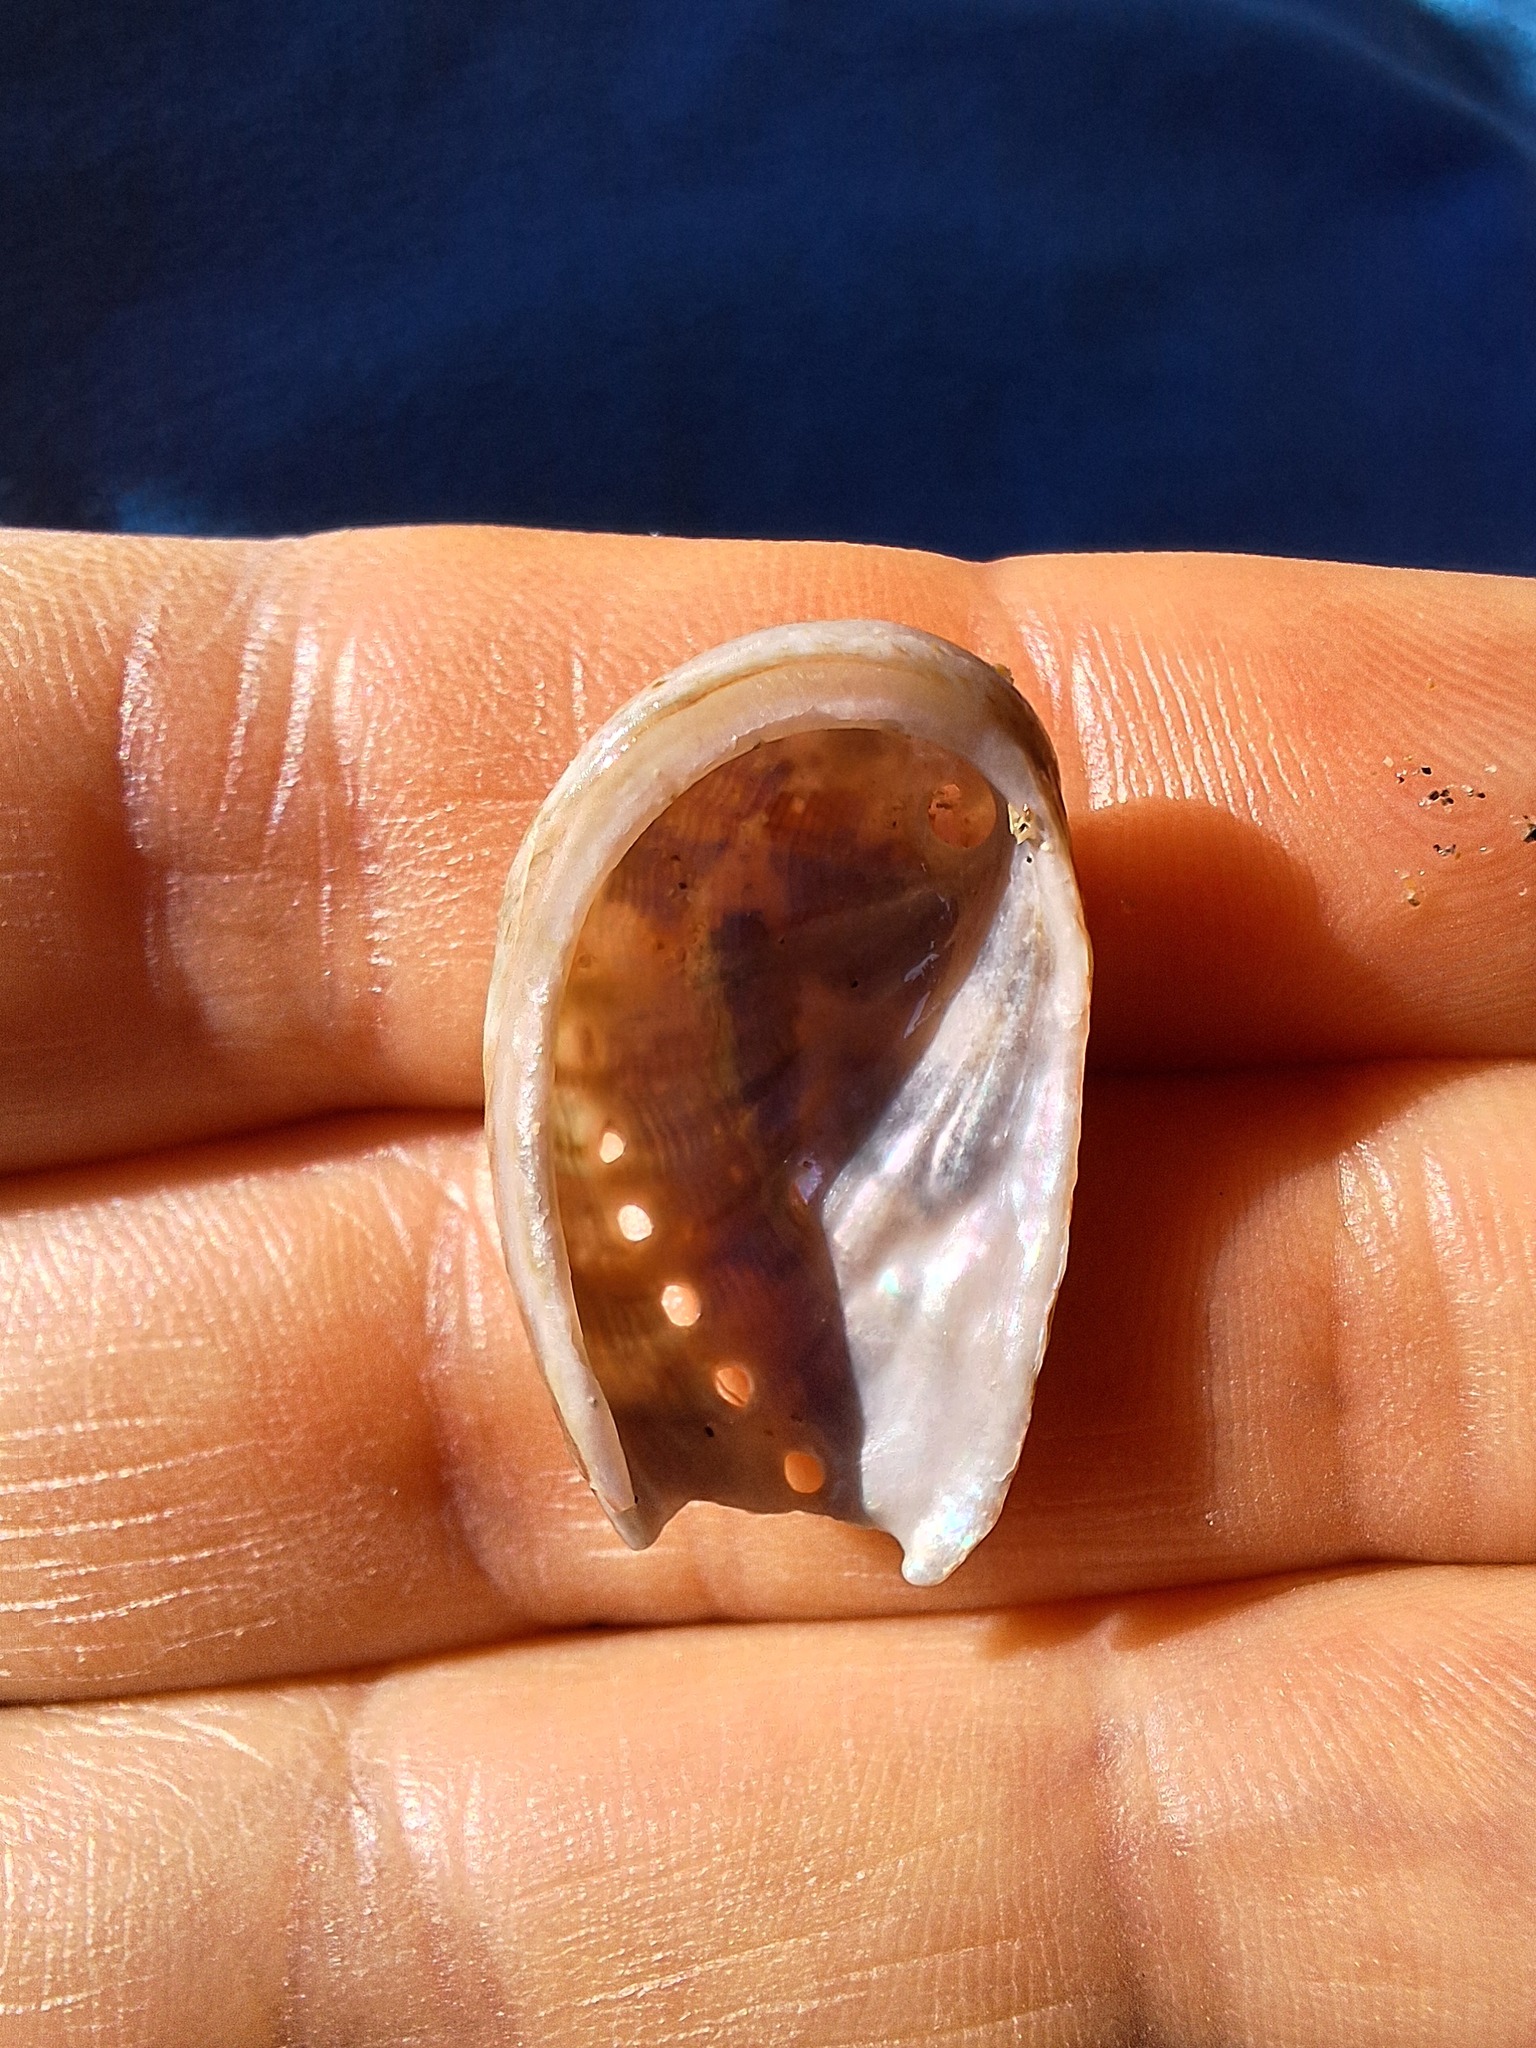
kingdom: Animalia
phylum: Mollusca
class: Gastropoda
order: Lepetellida
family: Haliotidae
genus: Haliotis
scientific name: Haliotis tuberculata
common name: Green ormer
